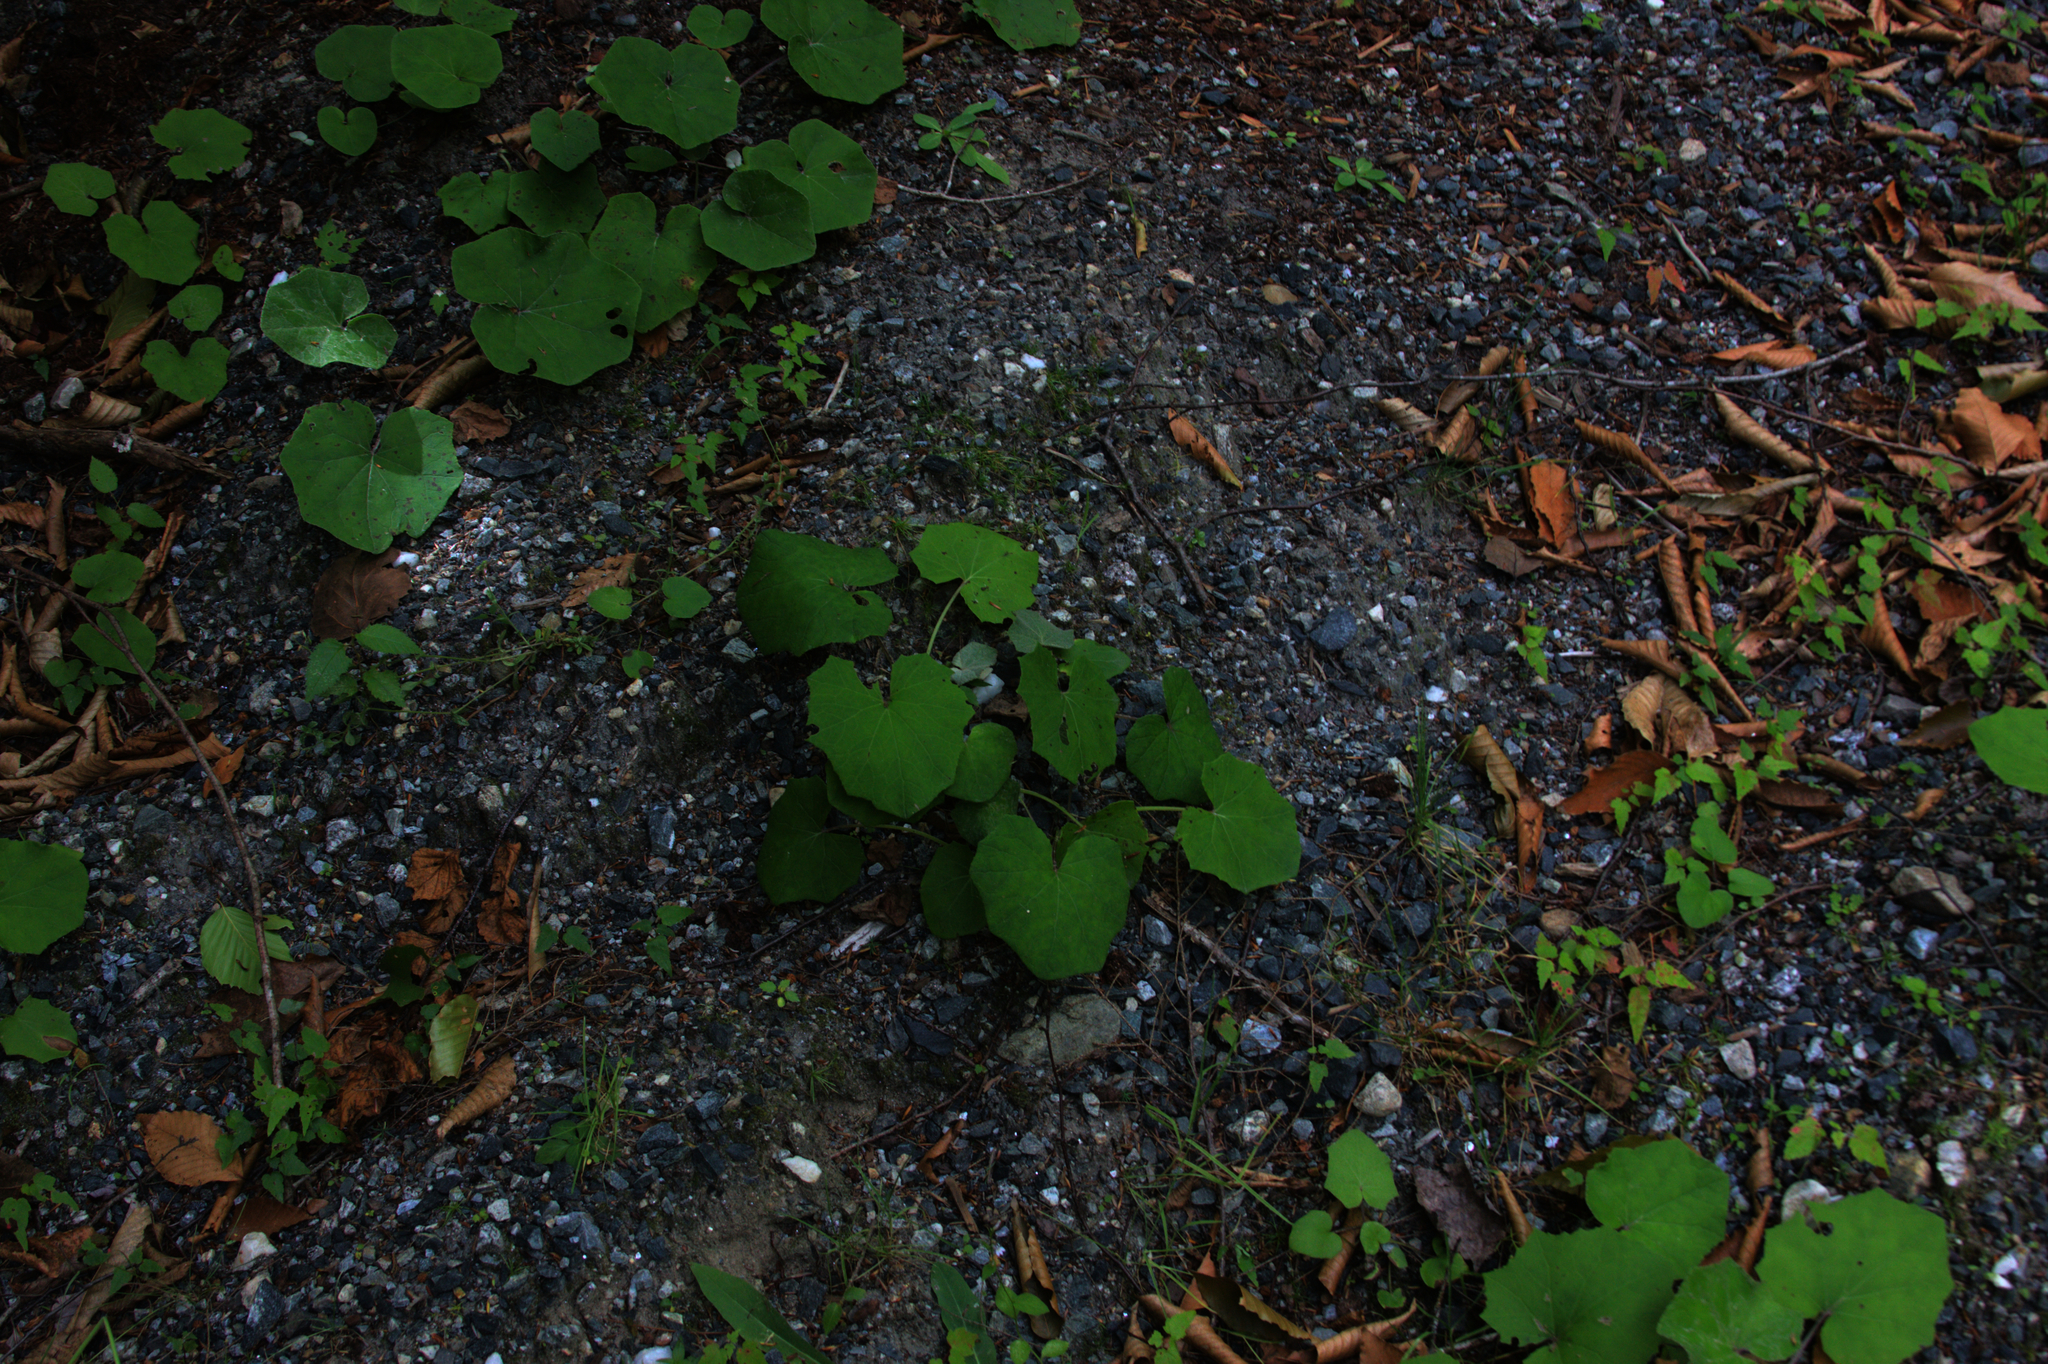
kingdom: Plantae
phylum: Tracheophyta
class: Magnoliopsida
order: Asterales
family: Asteraceae
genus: Tussilago
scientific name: Tussilago farfara
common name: Coltsfoot
